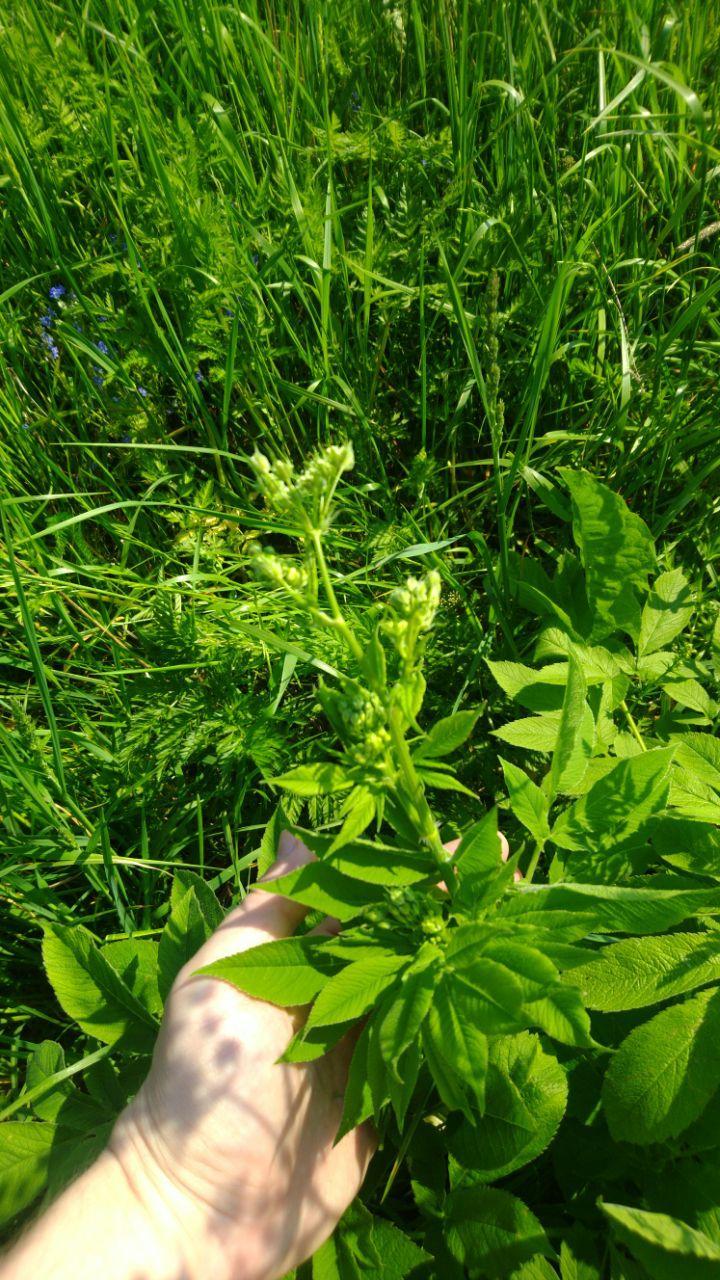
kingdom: Plantae
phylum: Tracheophyta
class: Magnoliopsida
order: Apiales
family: Apiaceae
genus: Aegopodium
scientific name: Aegopodium podagraria
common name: Ground-elder
